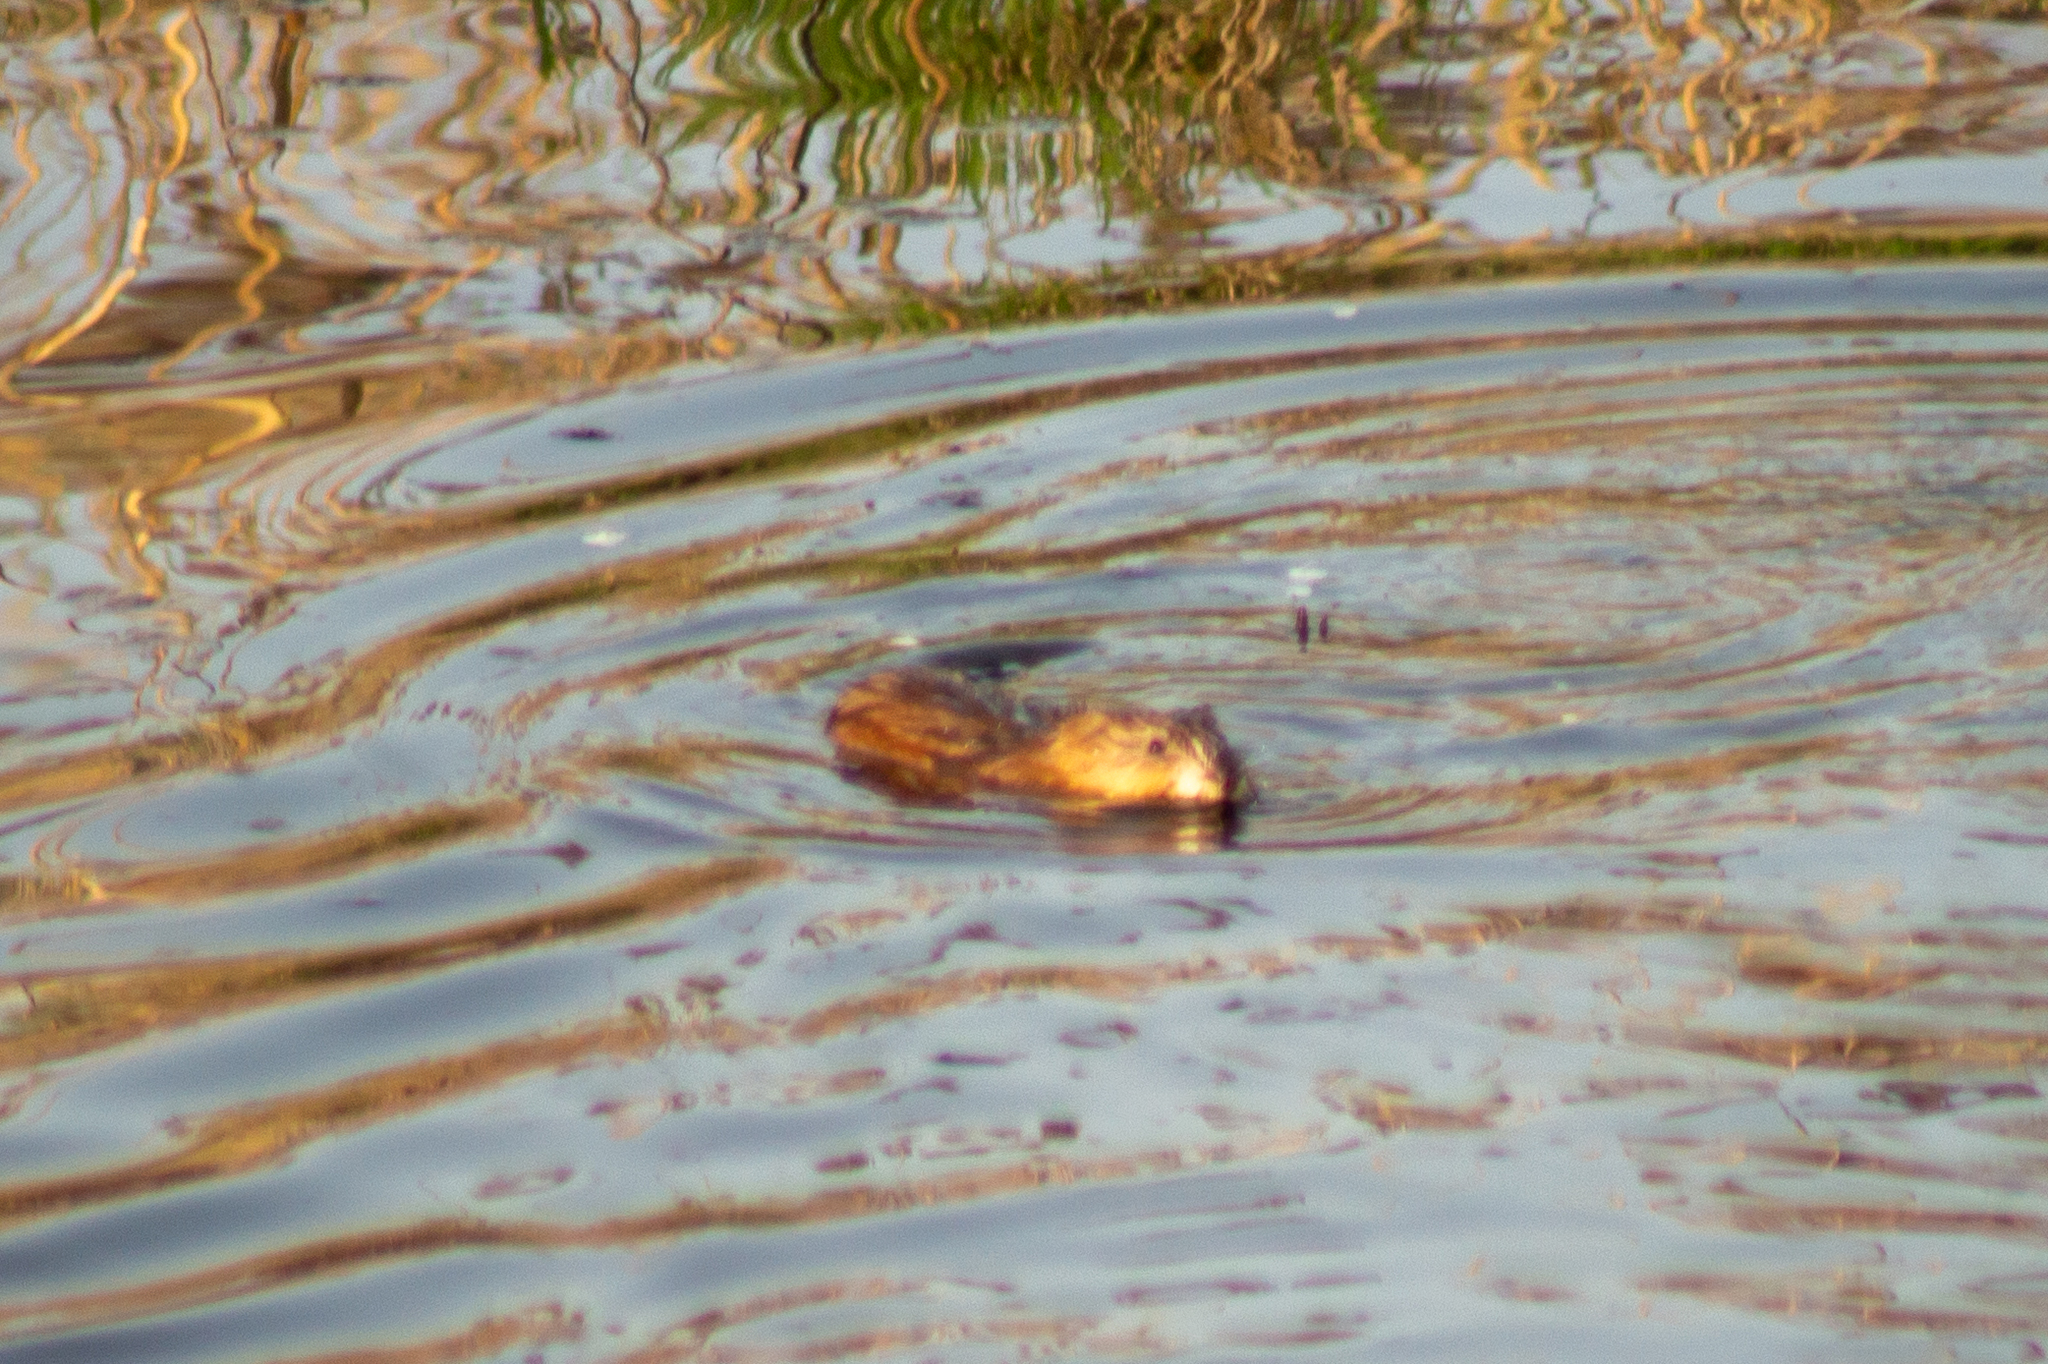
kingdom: Animalia
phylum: Chordata
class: Mammalia
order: Rodentia
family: Cricetidae
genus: Ondatra
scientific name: Ondatra zibethicus
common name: Muskrat
